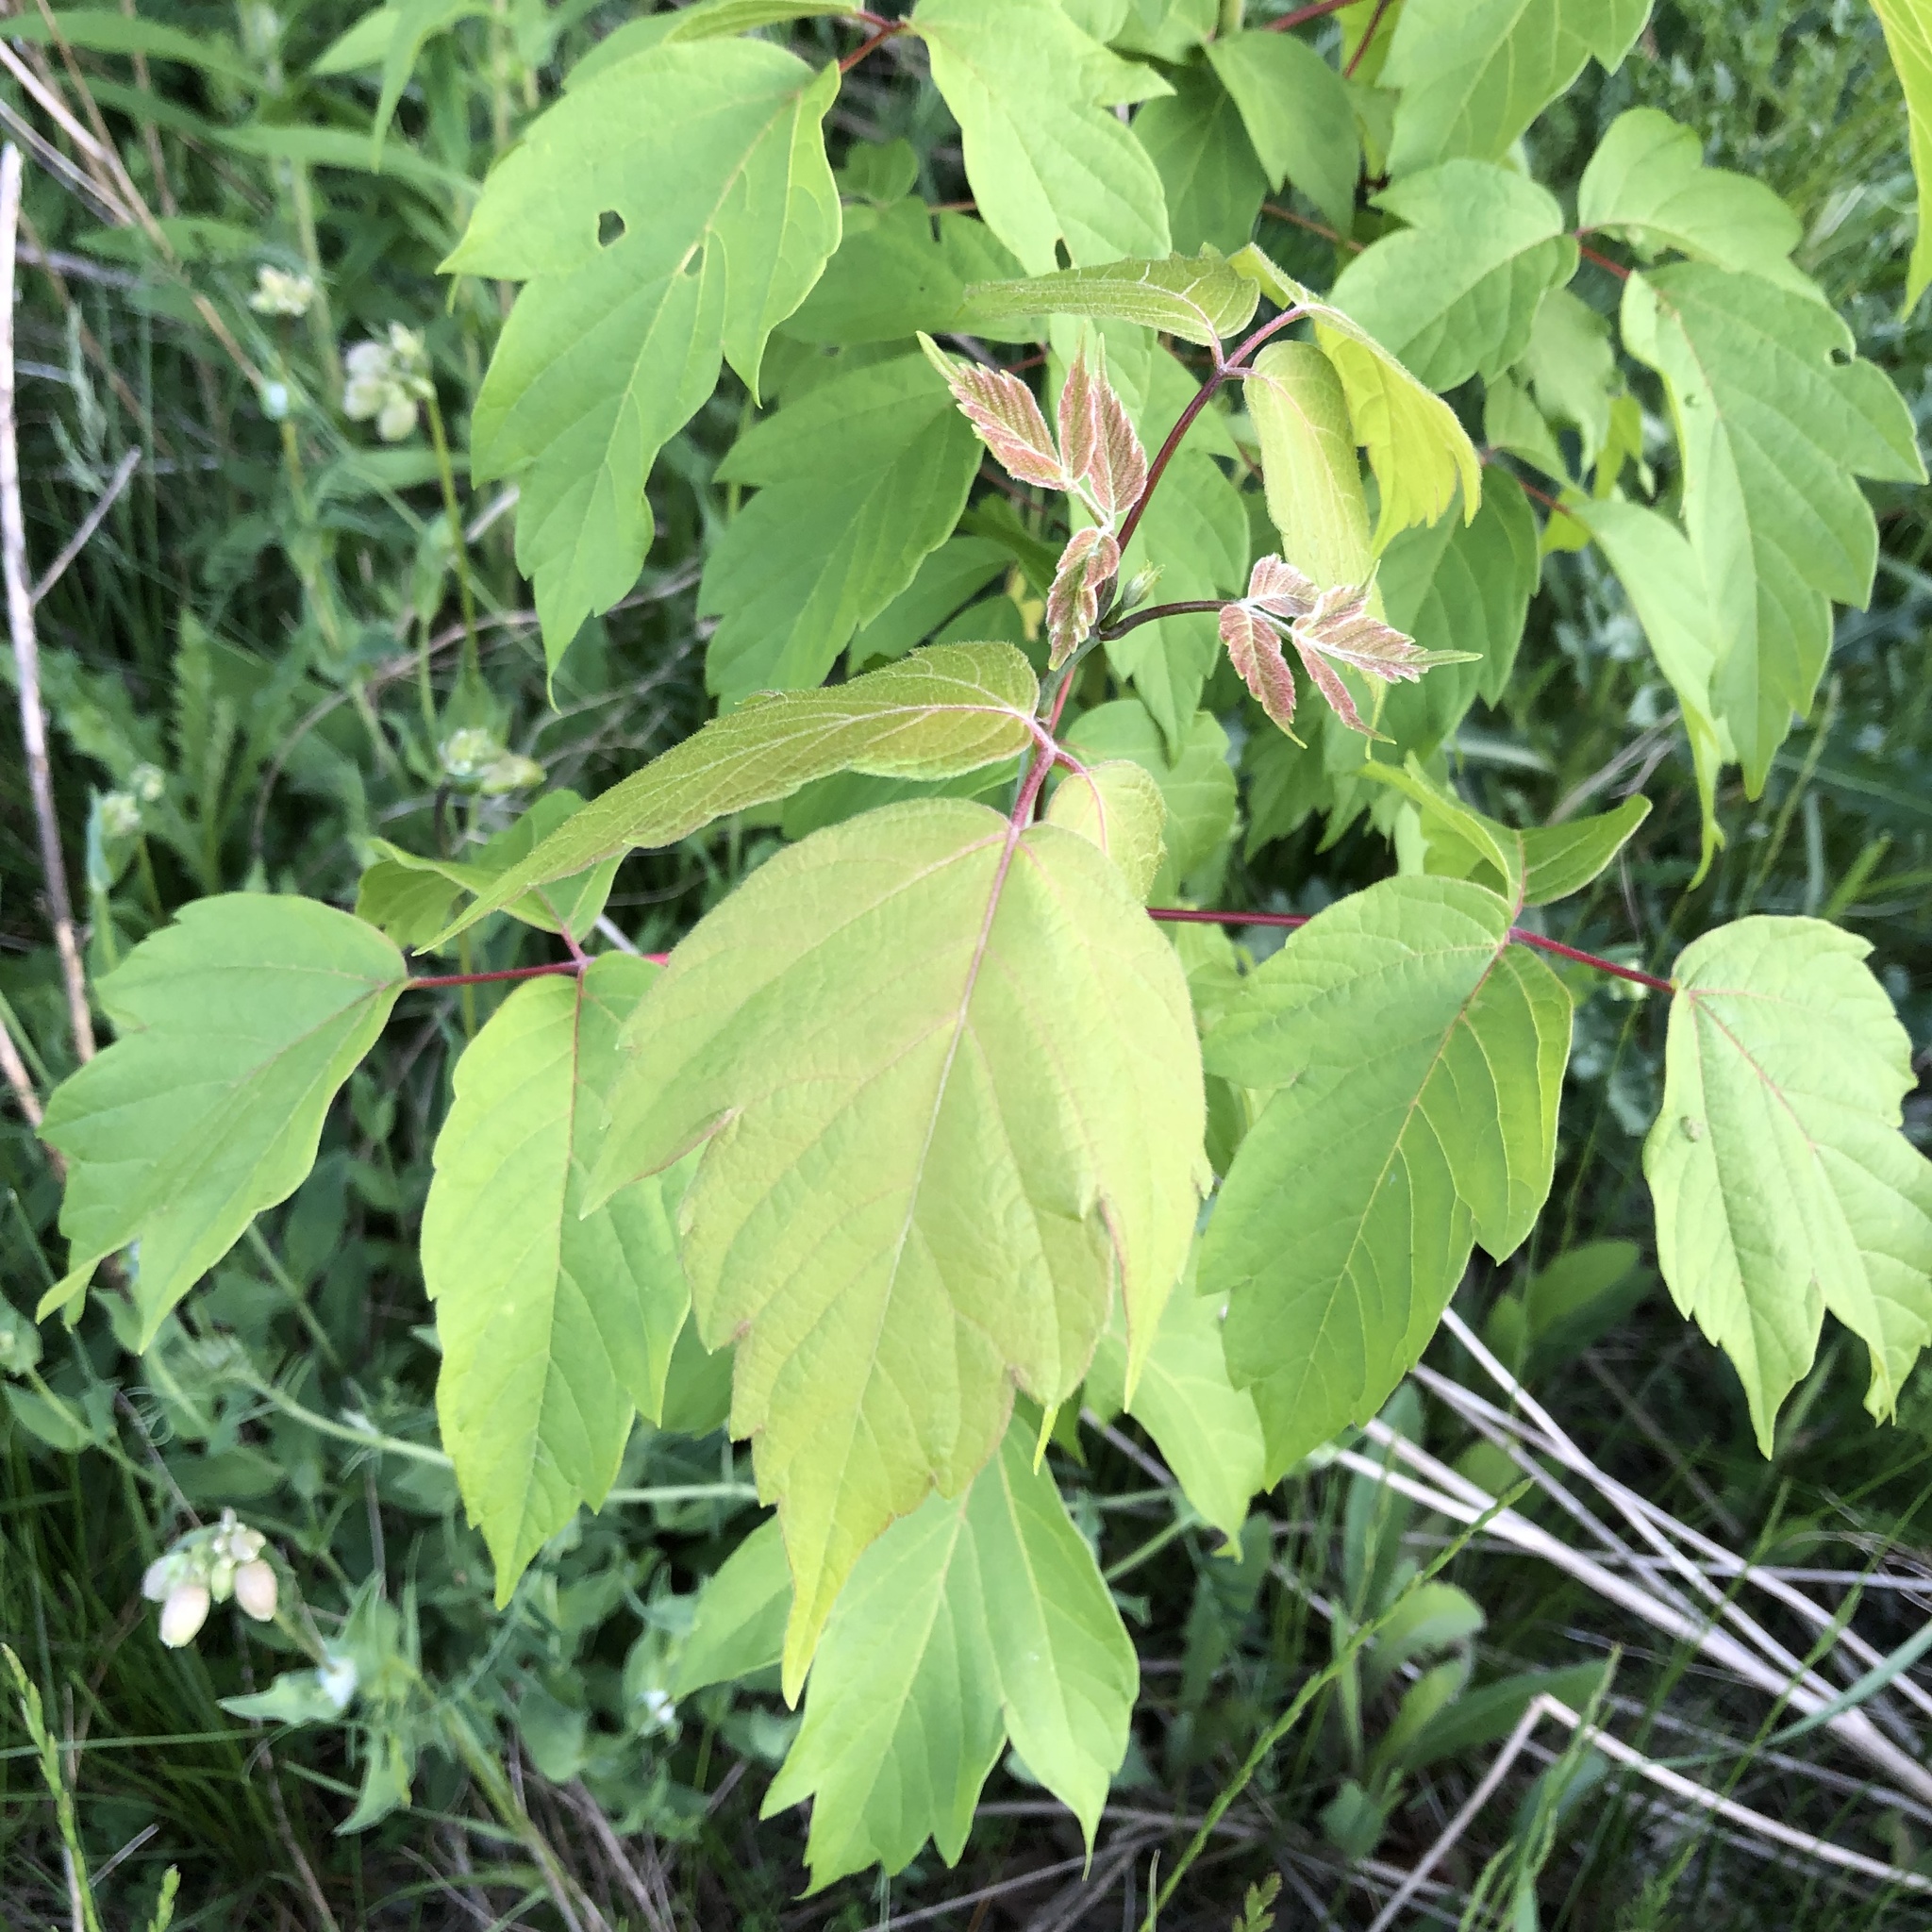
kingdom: Plantae
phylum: Tracheophyta
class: Magnoliopsida
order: Sapindales
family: Sapindaceae
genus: Acer
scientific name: Acer negundo
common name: Ashleaf maple
